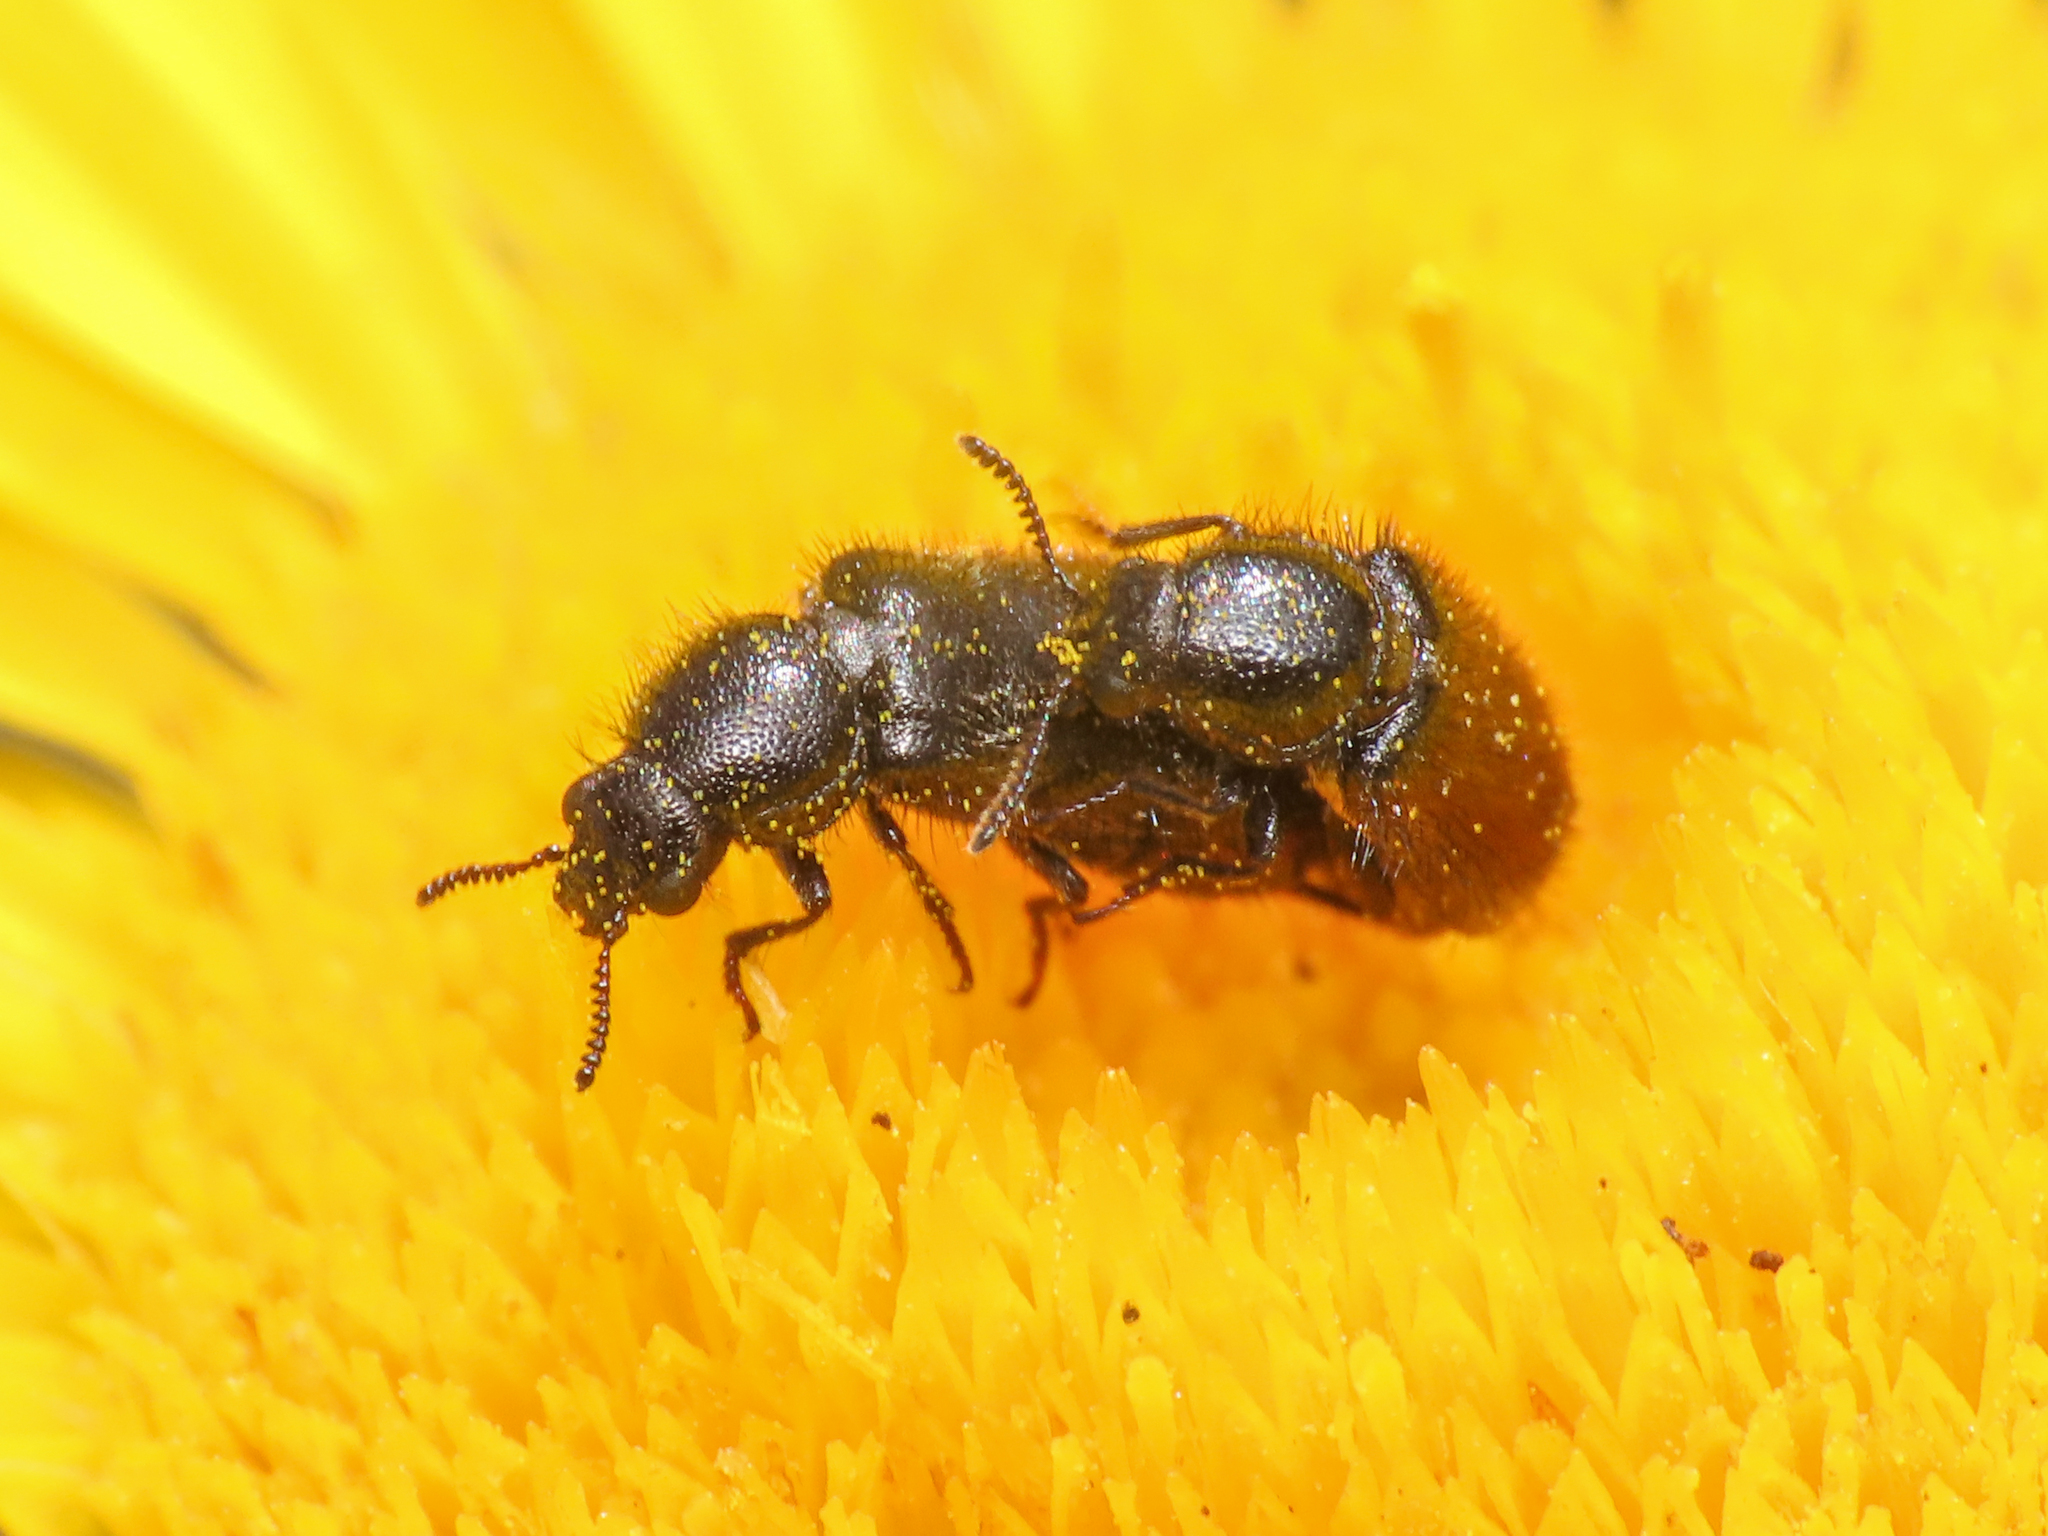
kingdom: Animalia
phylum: Arthropoda
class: Insecta
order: Coleoptera
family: Melyridae
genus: Divales
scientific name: Divales cinctus
